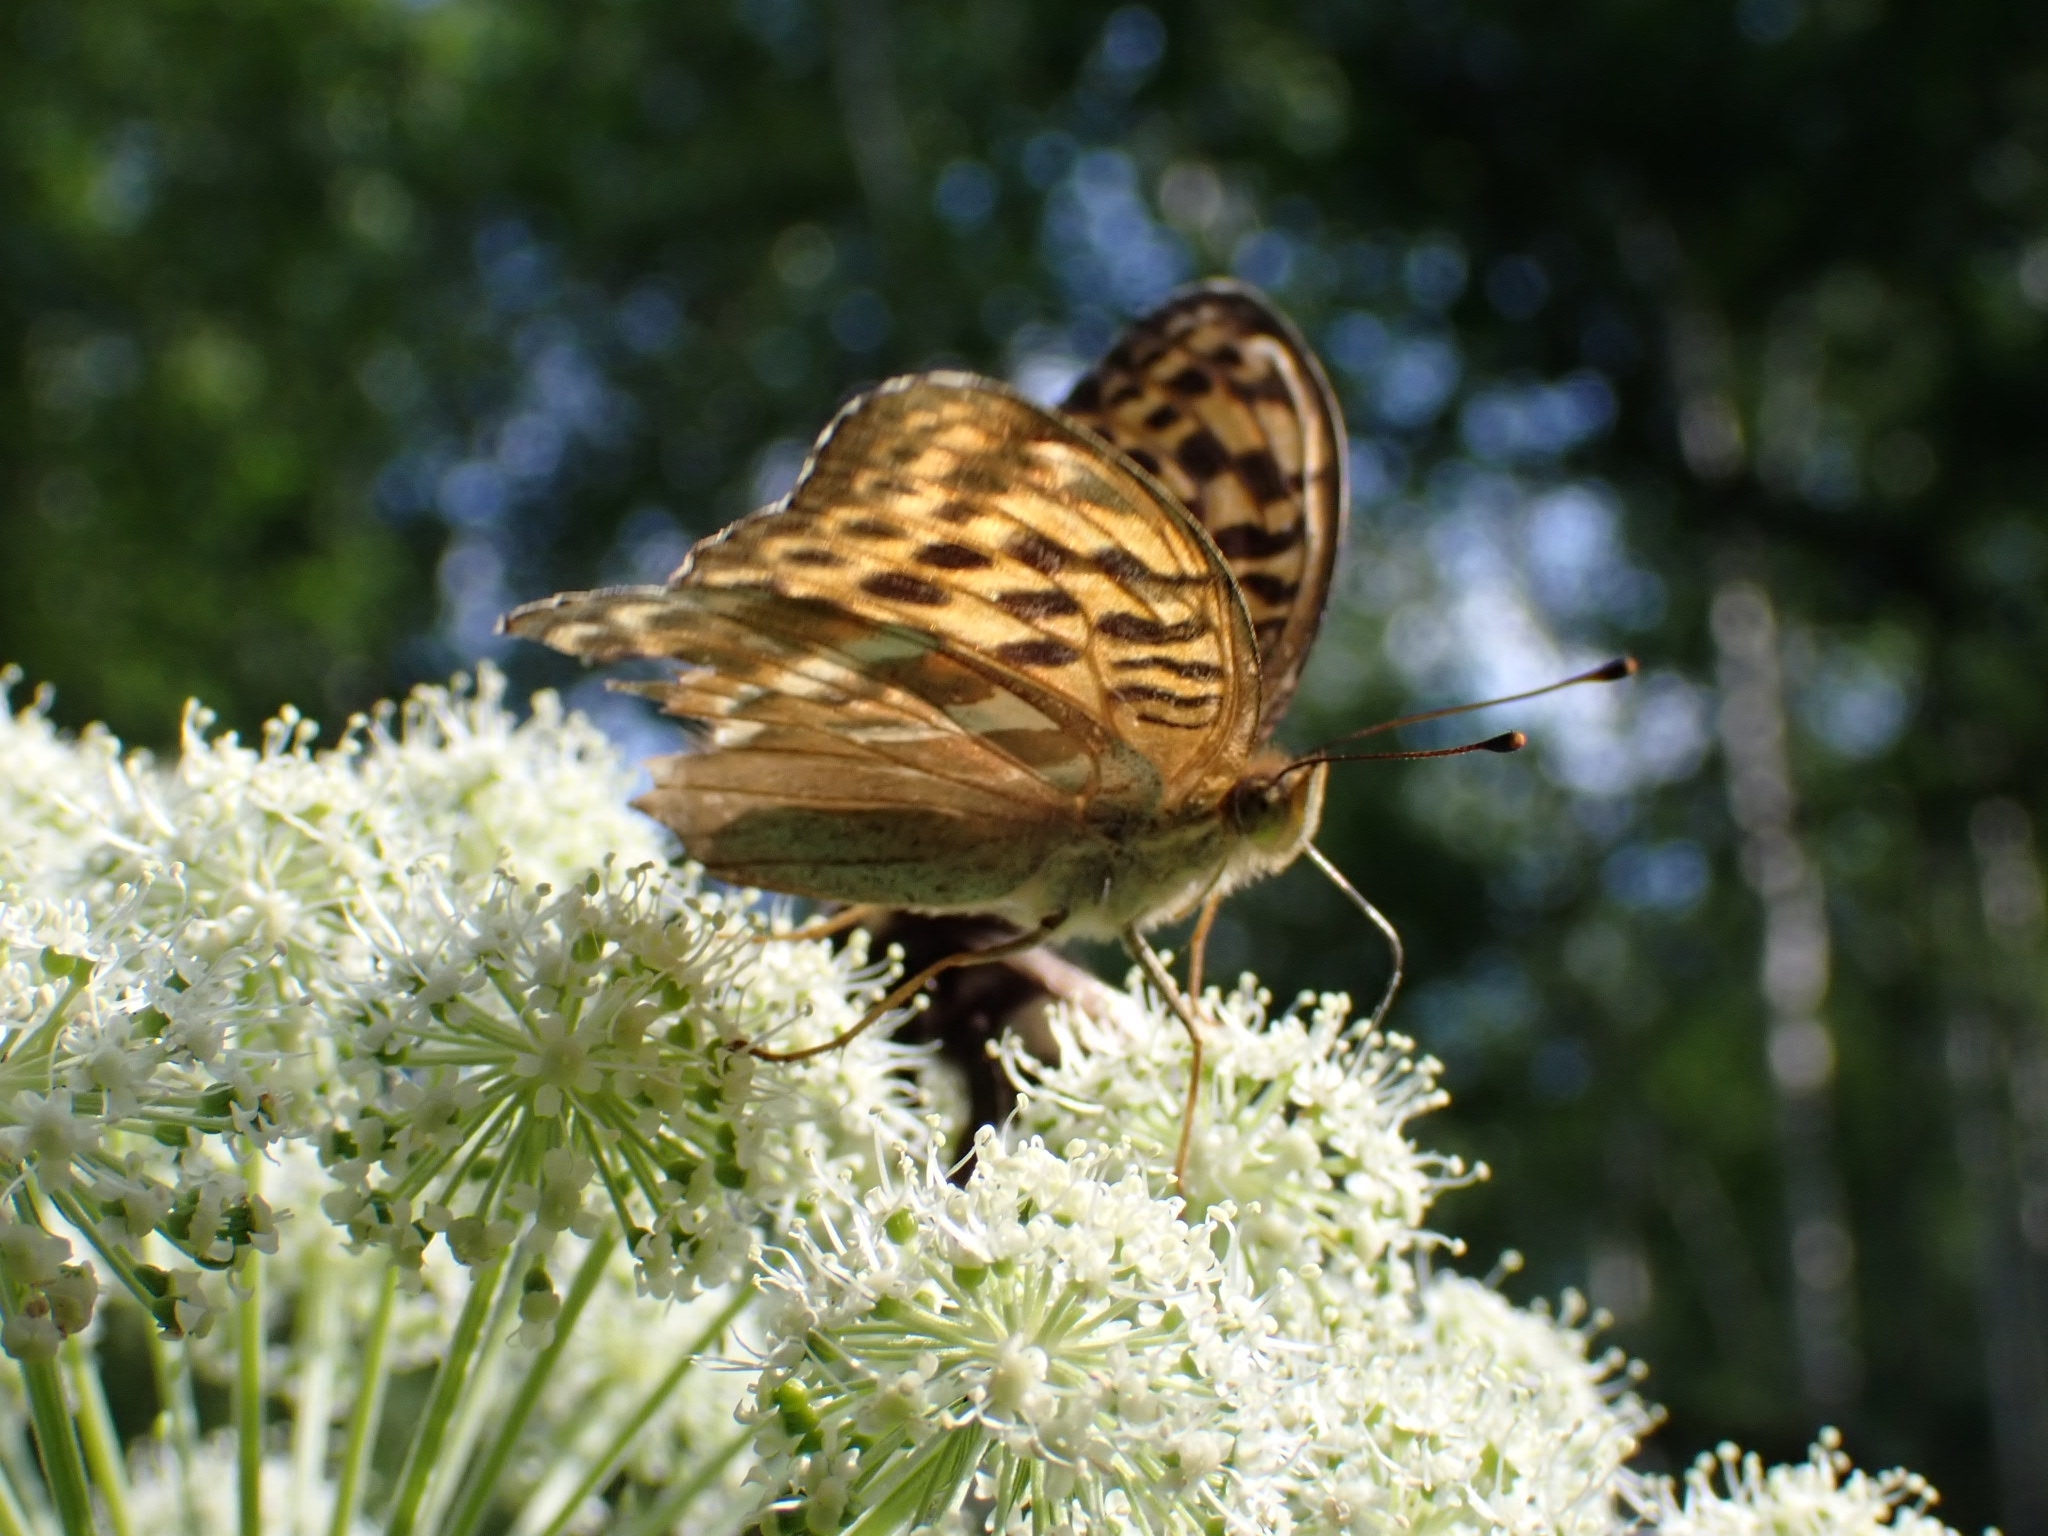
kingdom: Animalia
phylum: Arthropoda
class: Insecta
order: Lepidoptera
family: Nymphalidae
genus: Argynnis
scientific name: Argynnis paphia
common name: Silver-washed fritillary
